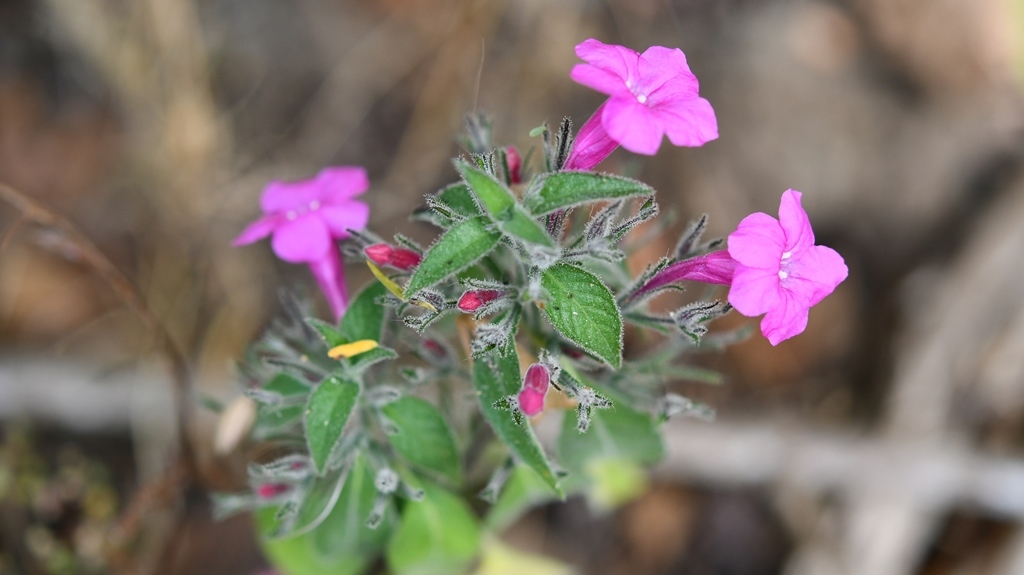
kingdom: Plantae
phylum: Tracheophyta
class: Magnoliopsida
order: Lamiales
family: Acanthaceae
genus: Ruellia
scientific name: Ruellia inundata
